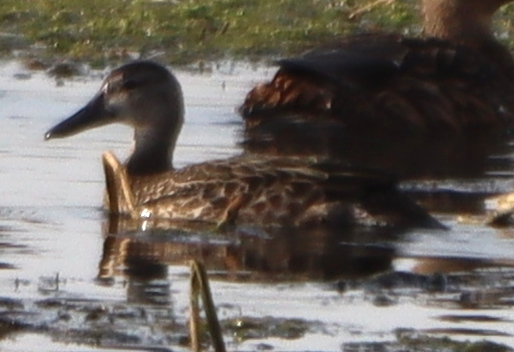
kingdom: Animalia
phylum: Chordata
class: Aves
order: Anseriformes
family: Anatidae
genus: Spatula
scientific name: Spatula discors
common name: Blue-winged teal
